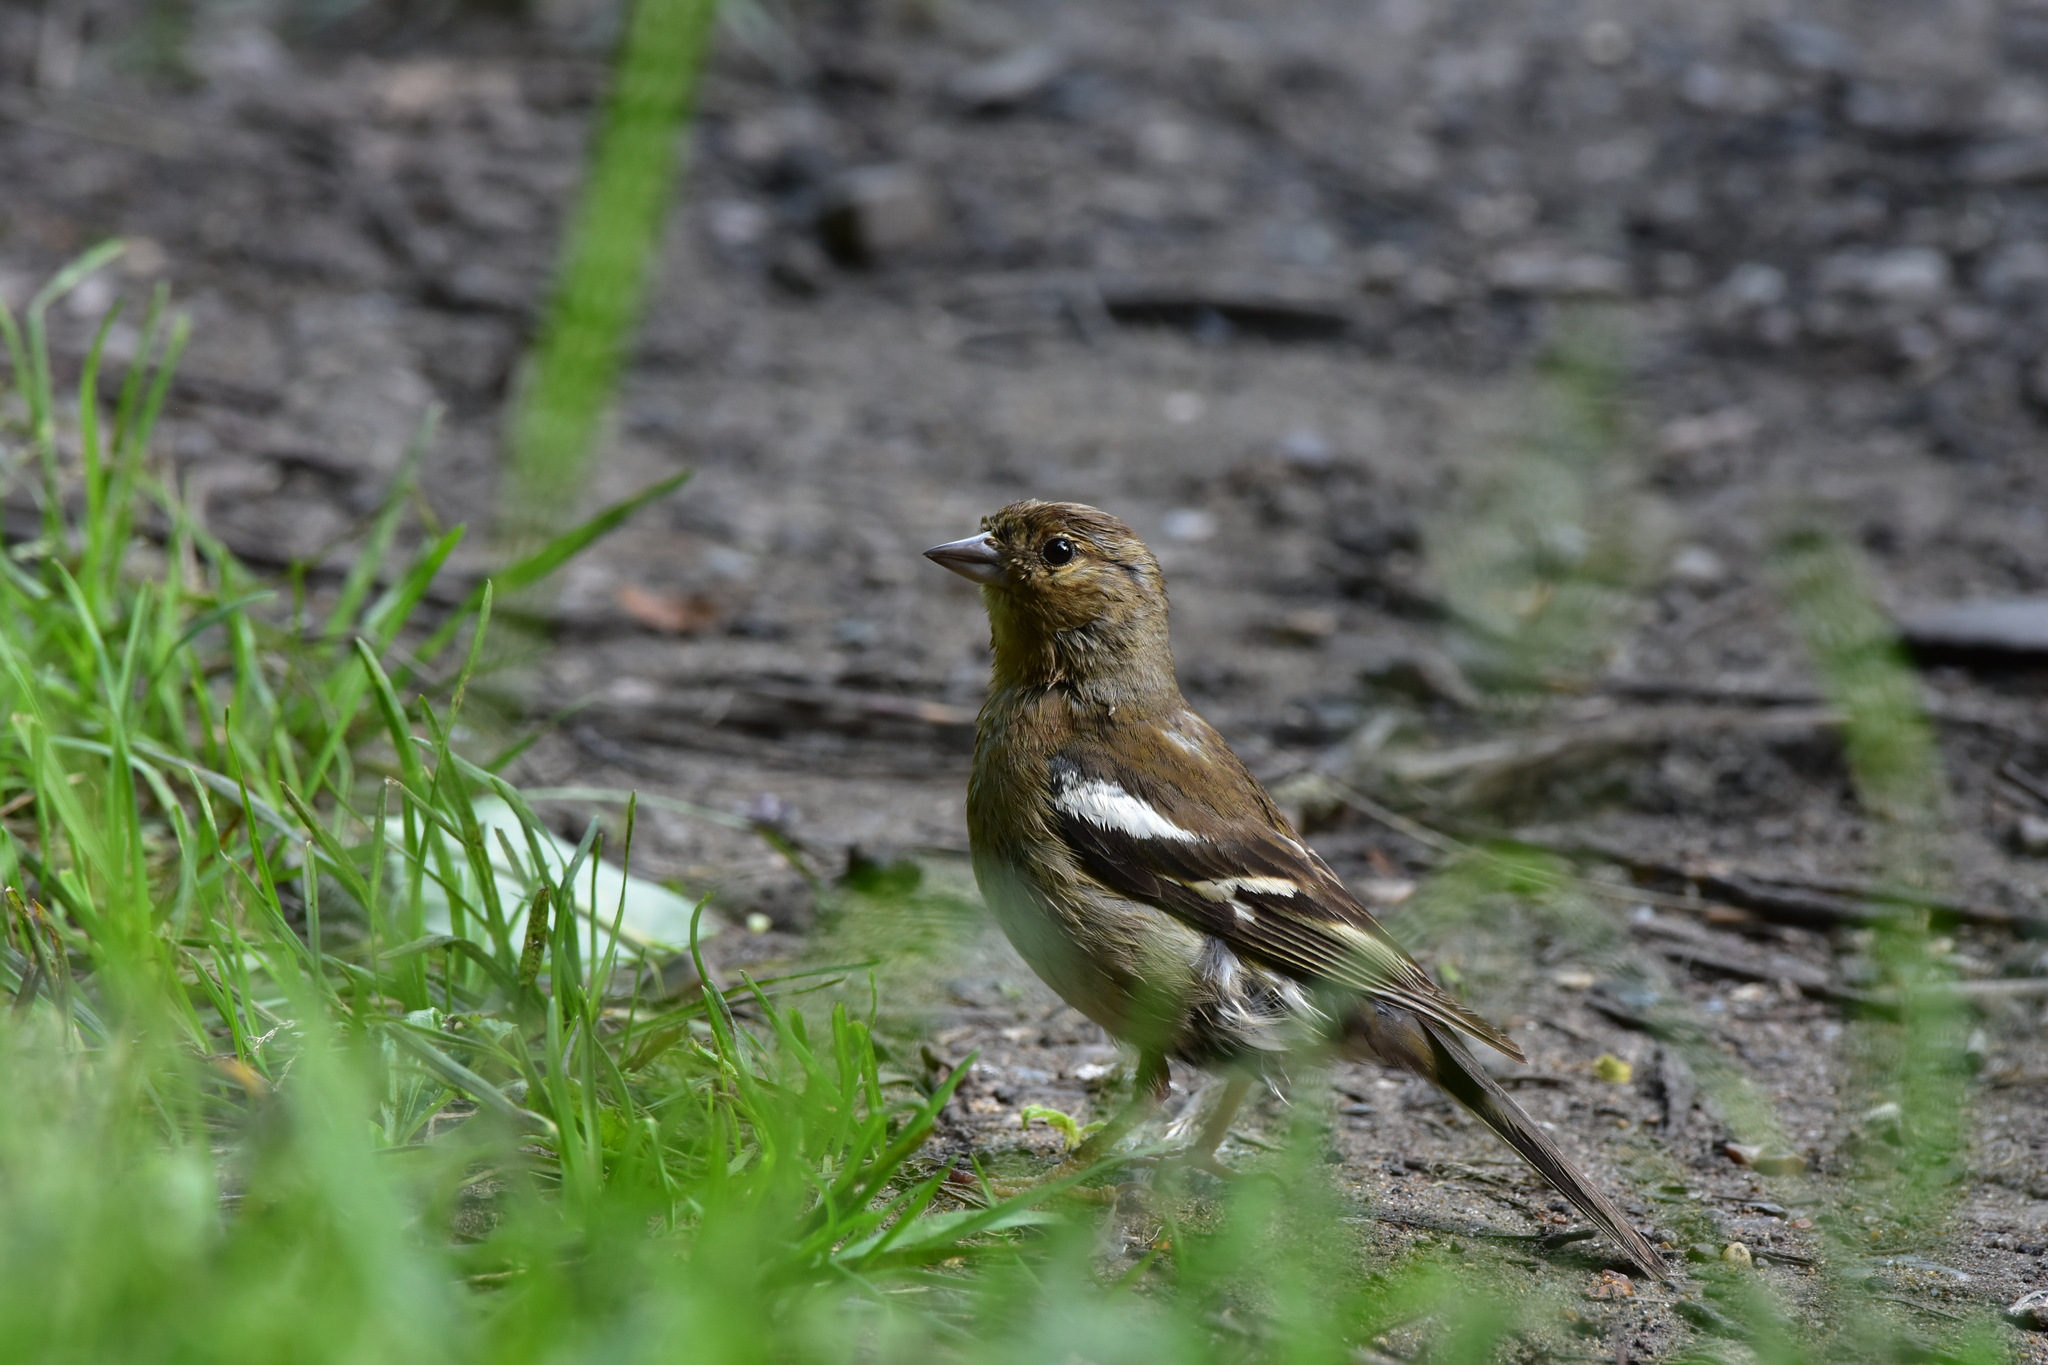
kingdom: Animalia
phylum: Chordata
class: Aves
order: Passeriformes
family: Fringillidae
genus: Fringilla
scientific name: Fringilla coelebs
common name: Common chaffinch
